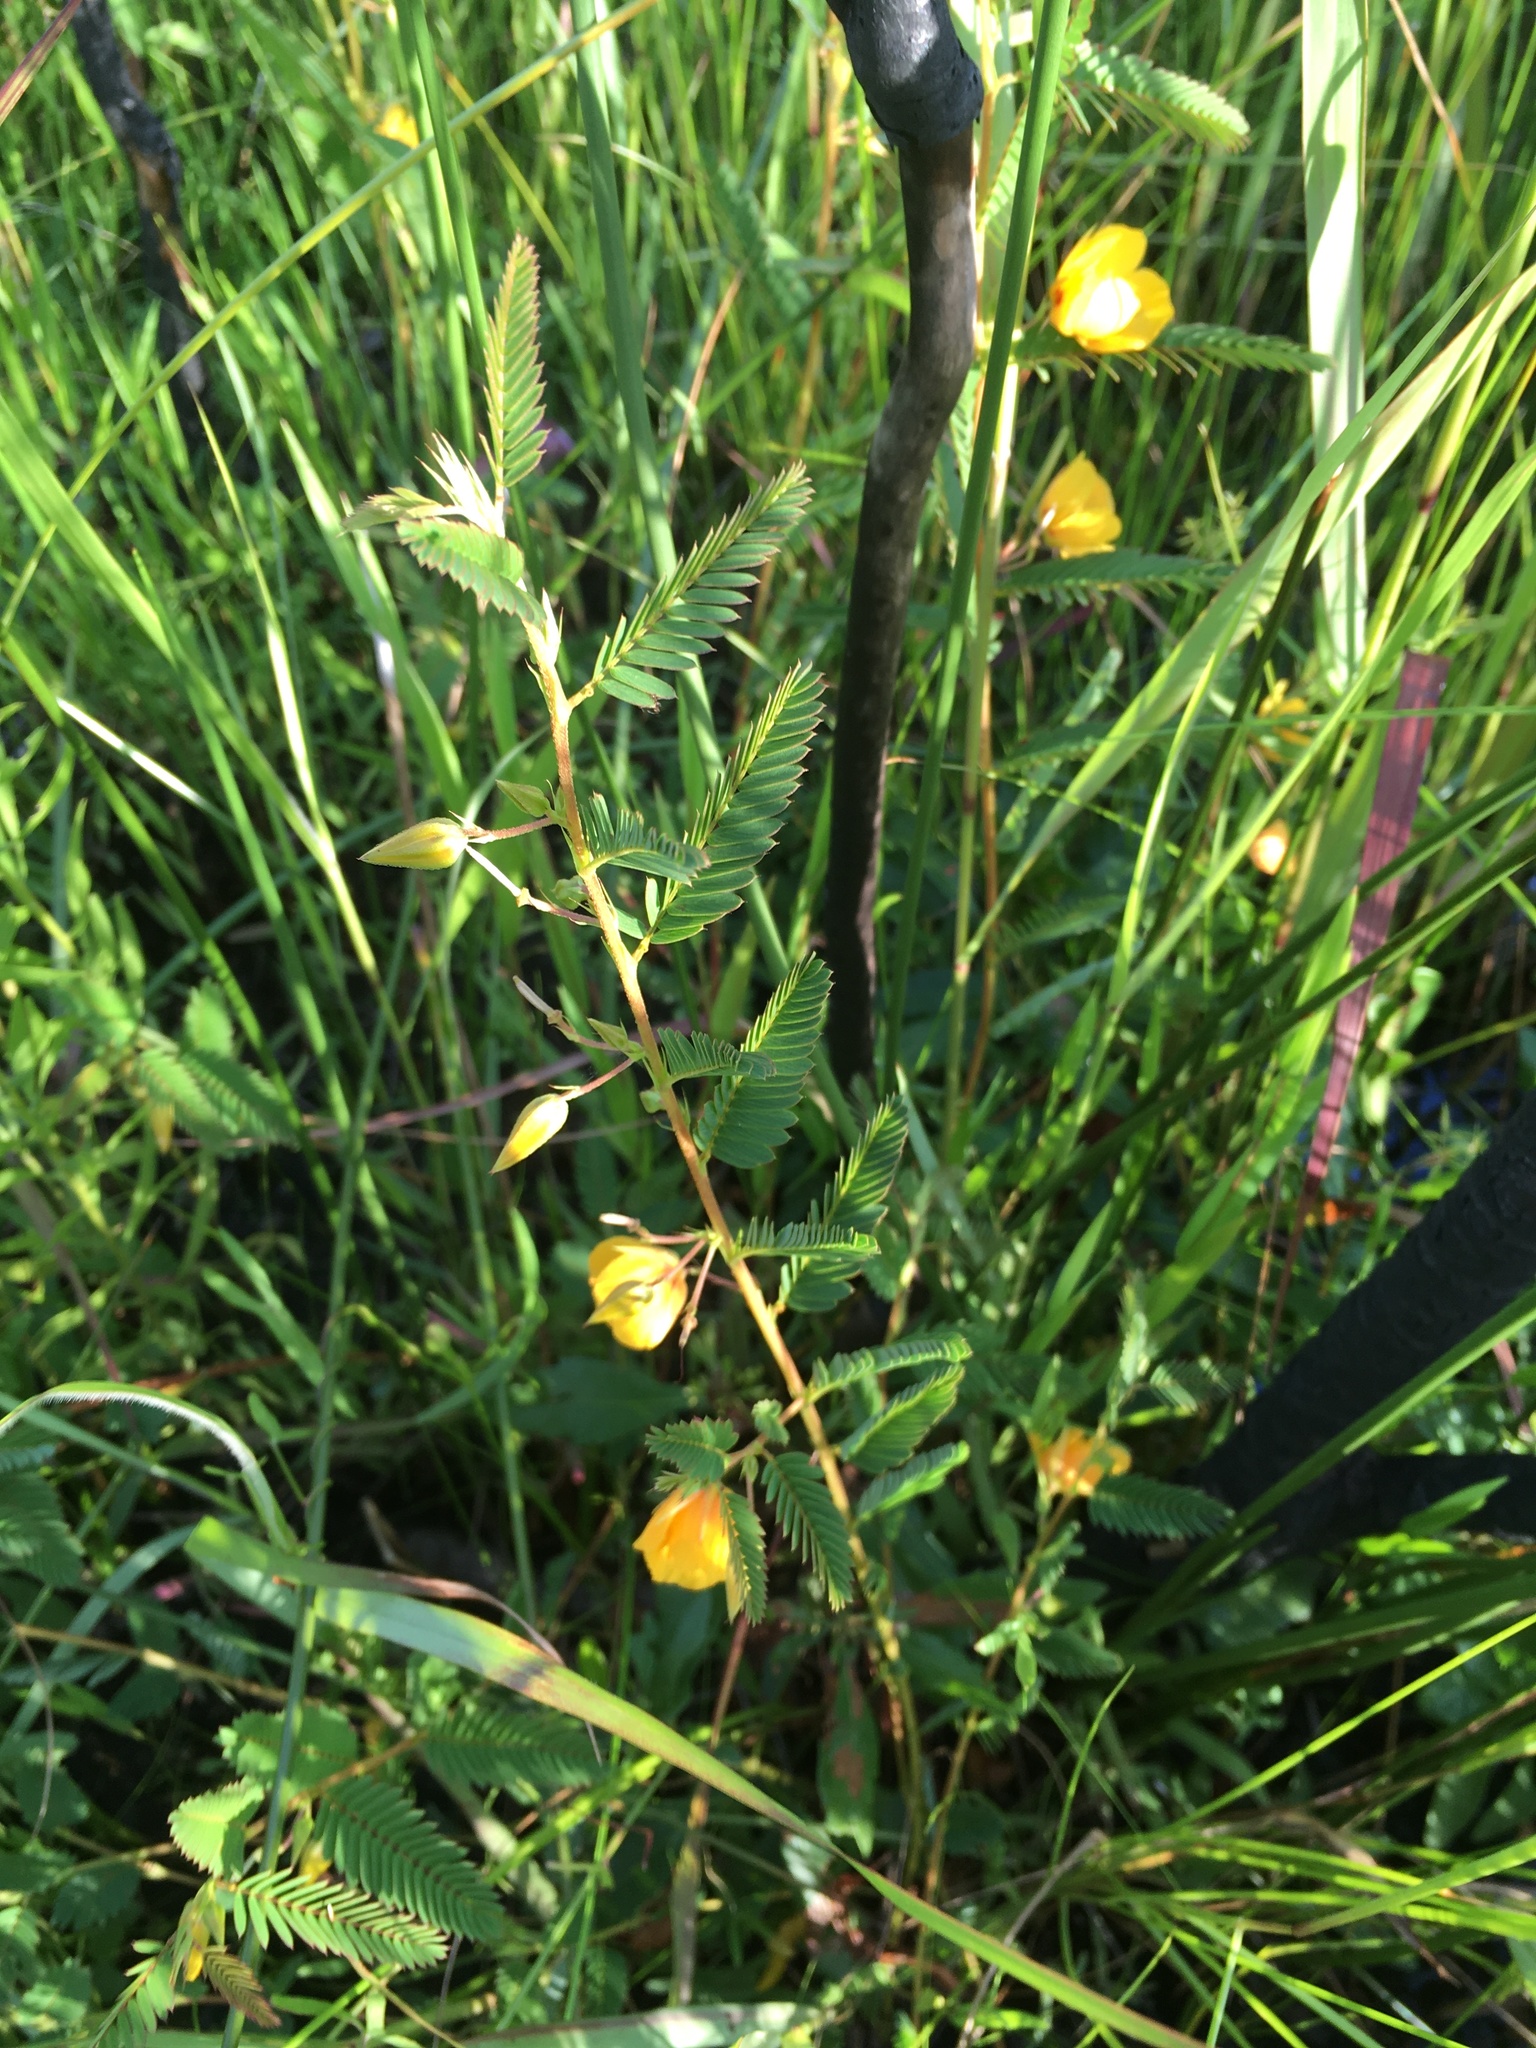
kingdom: Plantae
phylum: Tracheophyta
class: Magnoliopsida
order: Fabales
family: Fabaceae
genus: Chamaecrista
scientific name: Chamaecrista fasciculata
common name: Golden cassia
